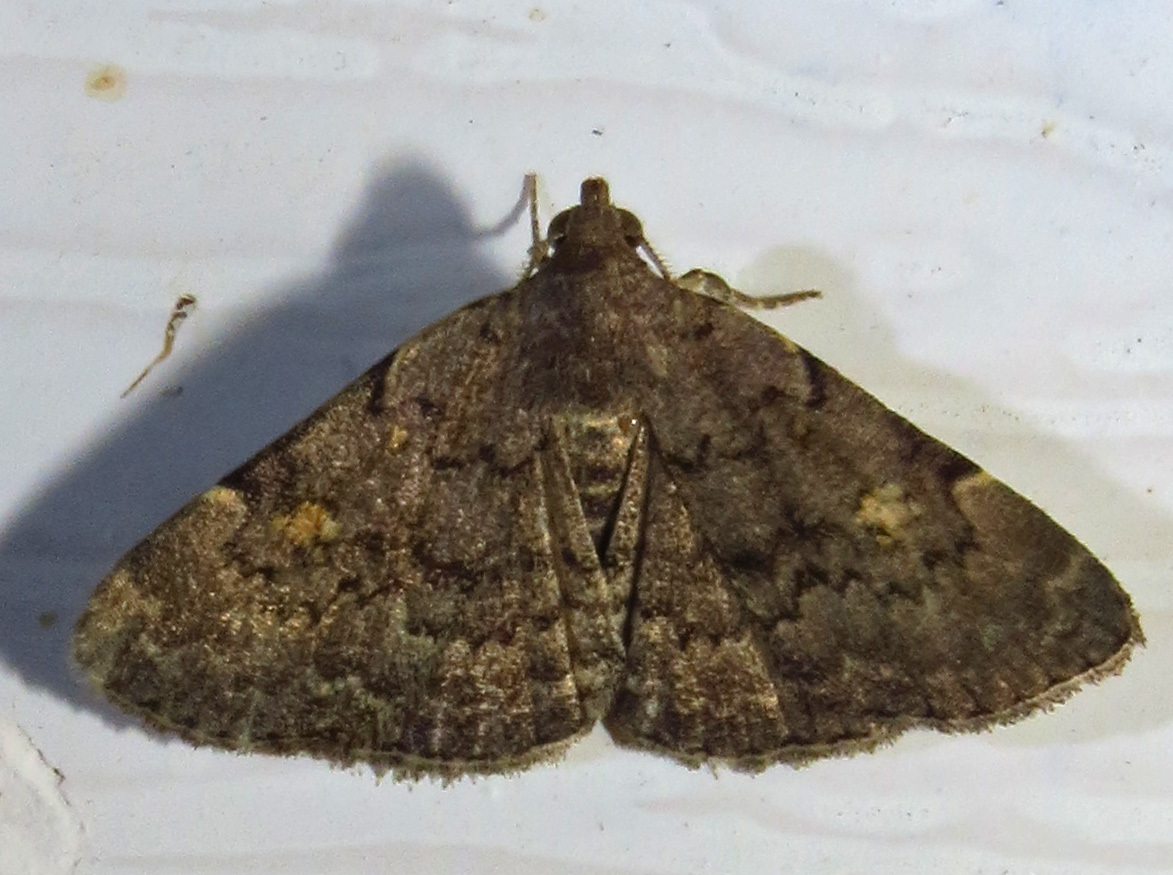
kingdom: Animalia
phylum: Arthropoda
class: Insecta
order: Lepidoptera
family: Erebidae
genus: Idia
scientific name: Idia aemula
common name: Common idia moth
